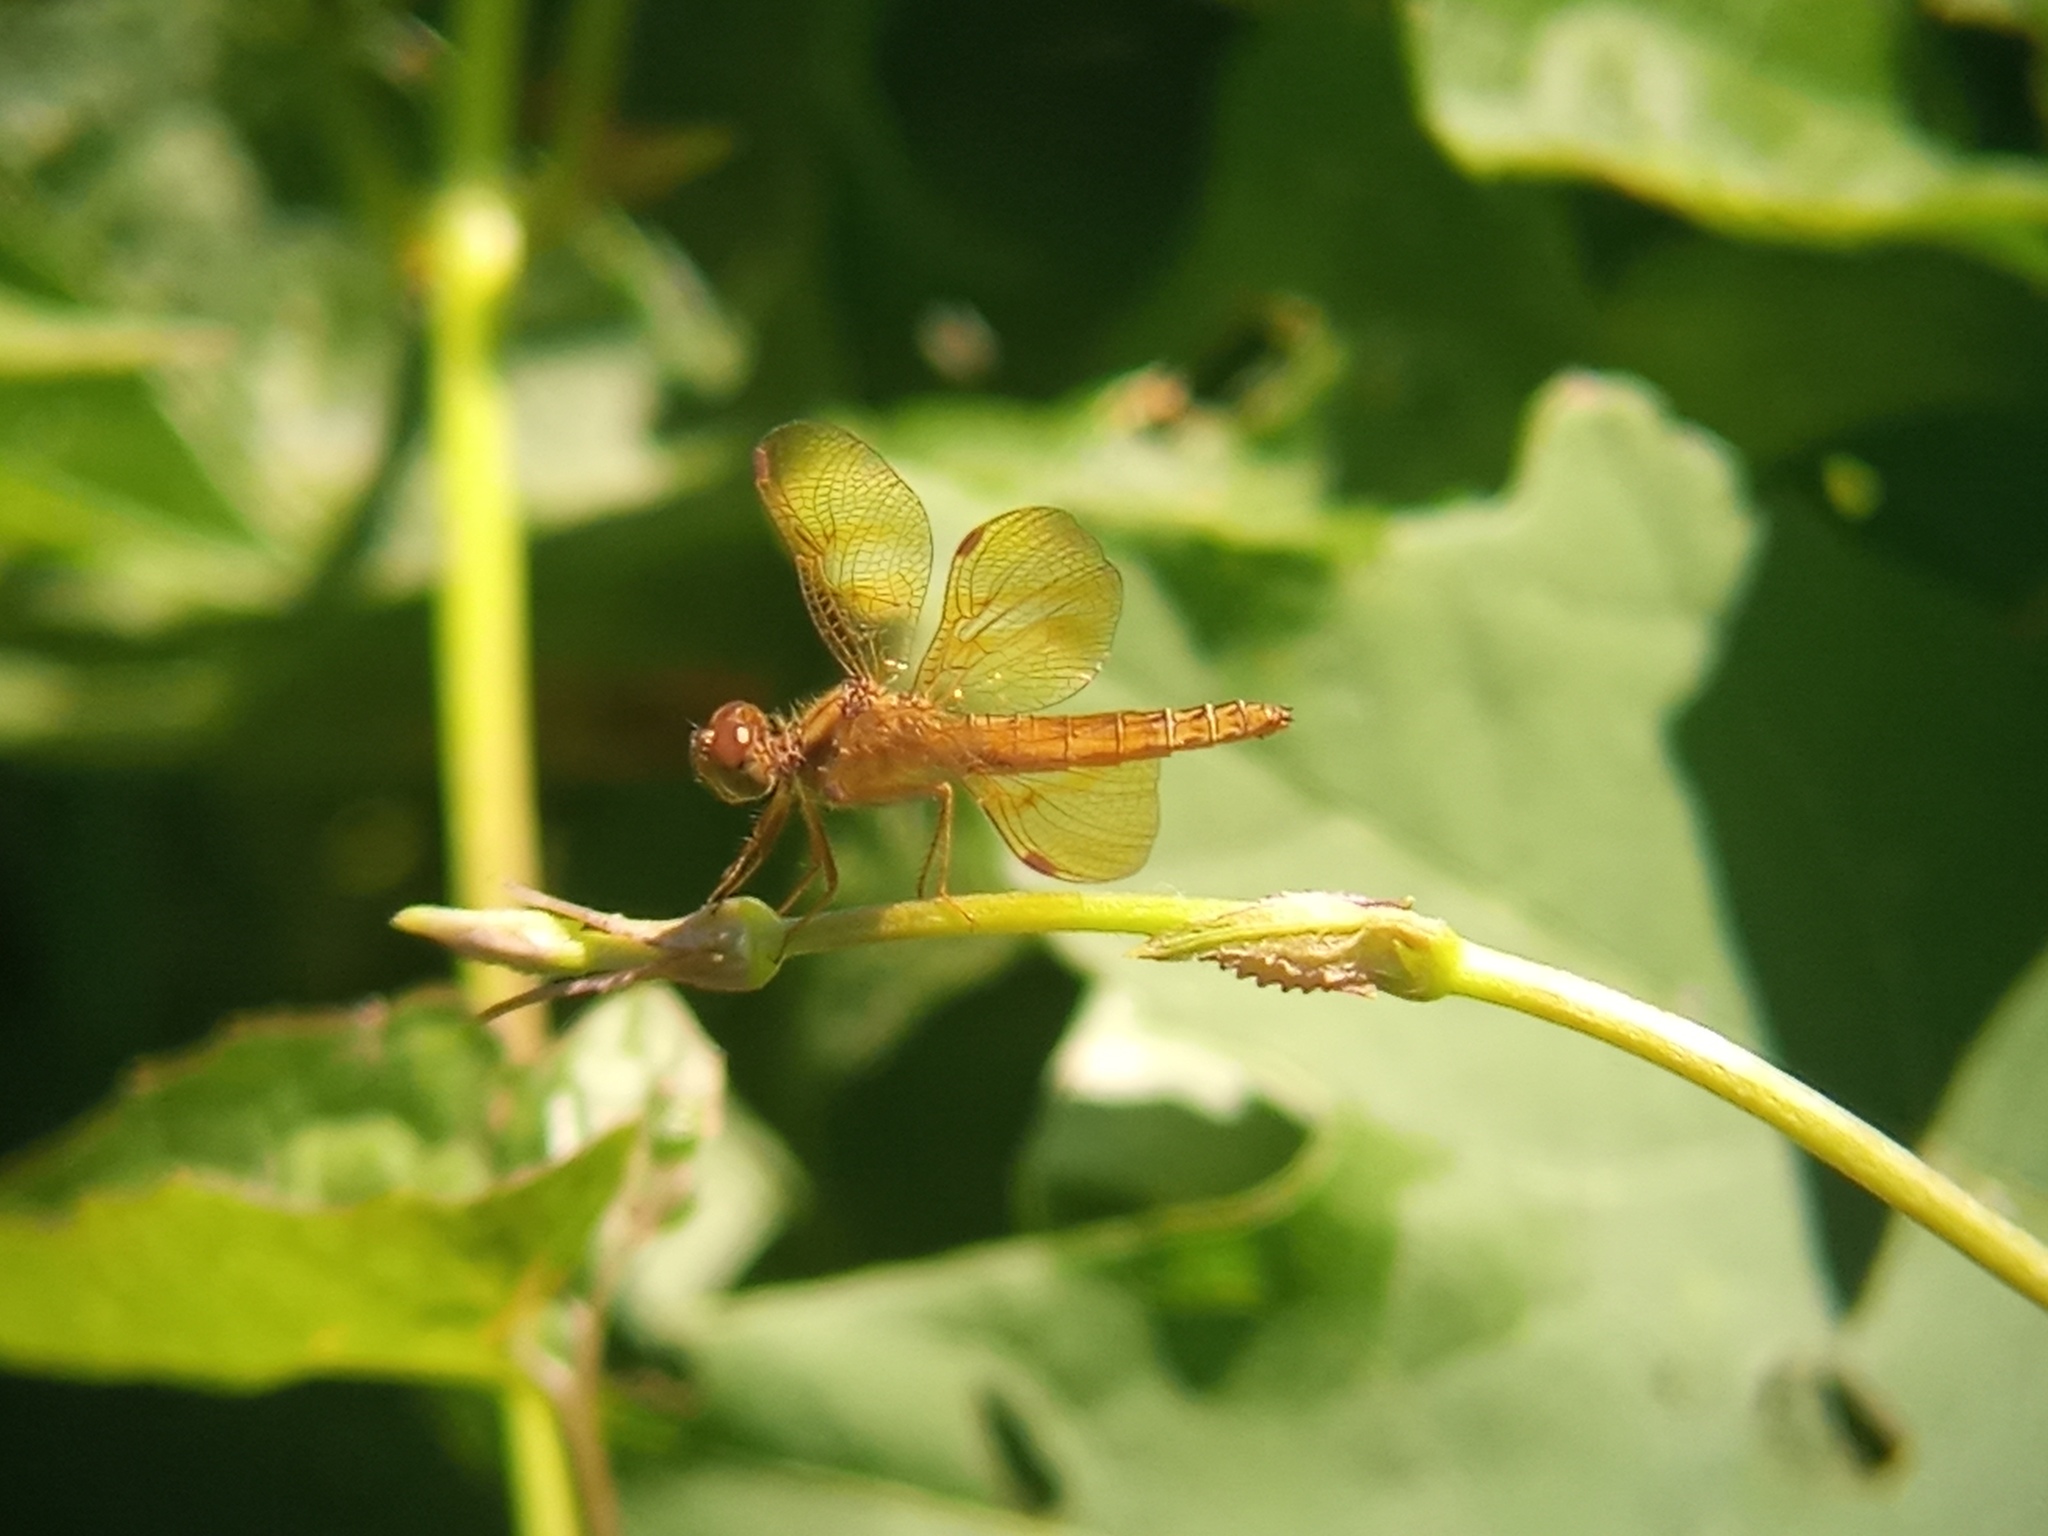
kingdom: Animalia
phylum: Arthropoda
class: Insecta
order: Odonata
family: Libellulidae
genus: Perithemis
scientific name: Perithemis icteroptera
